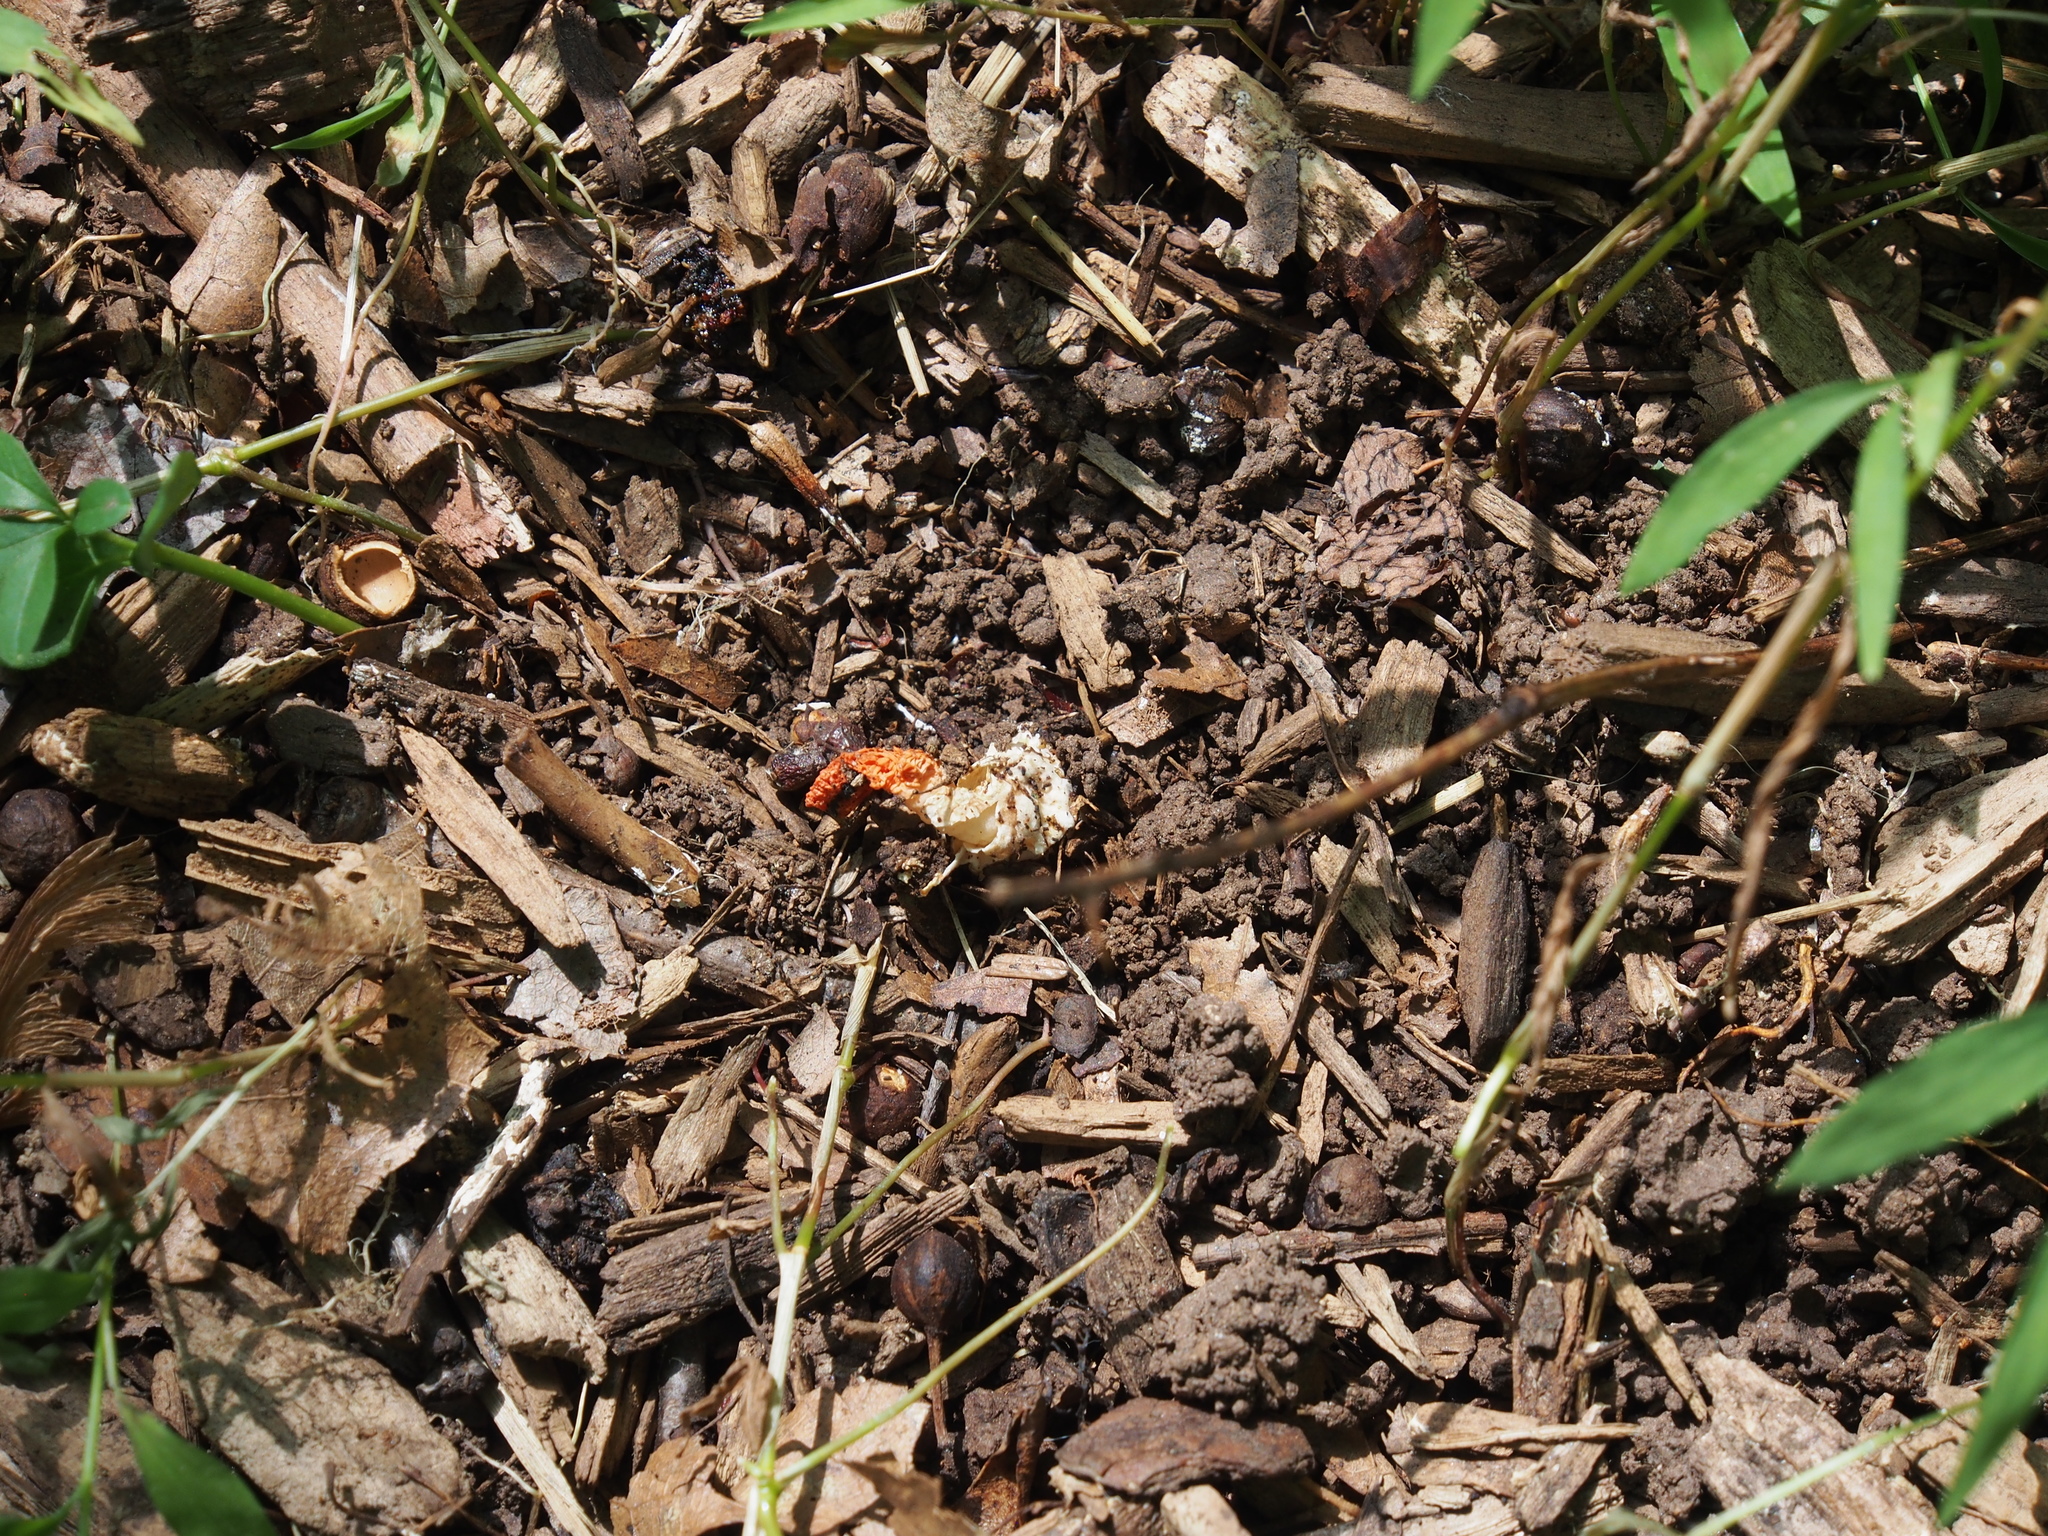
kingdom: Fungi
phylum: Basidiomycota
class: Agaricomycetes
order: Phallales
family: Phallaceae
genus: Pseudocolus
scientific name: Pseudocolus fusiformis
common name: Stinky squid
